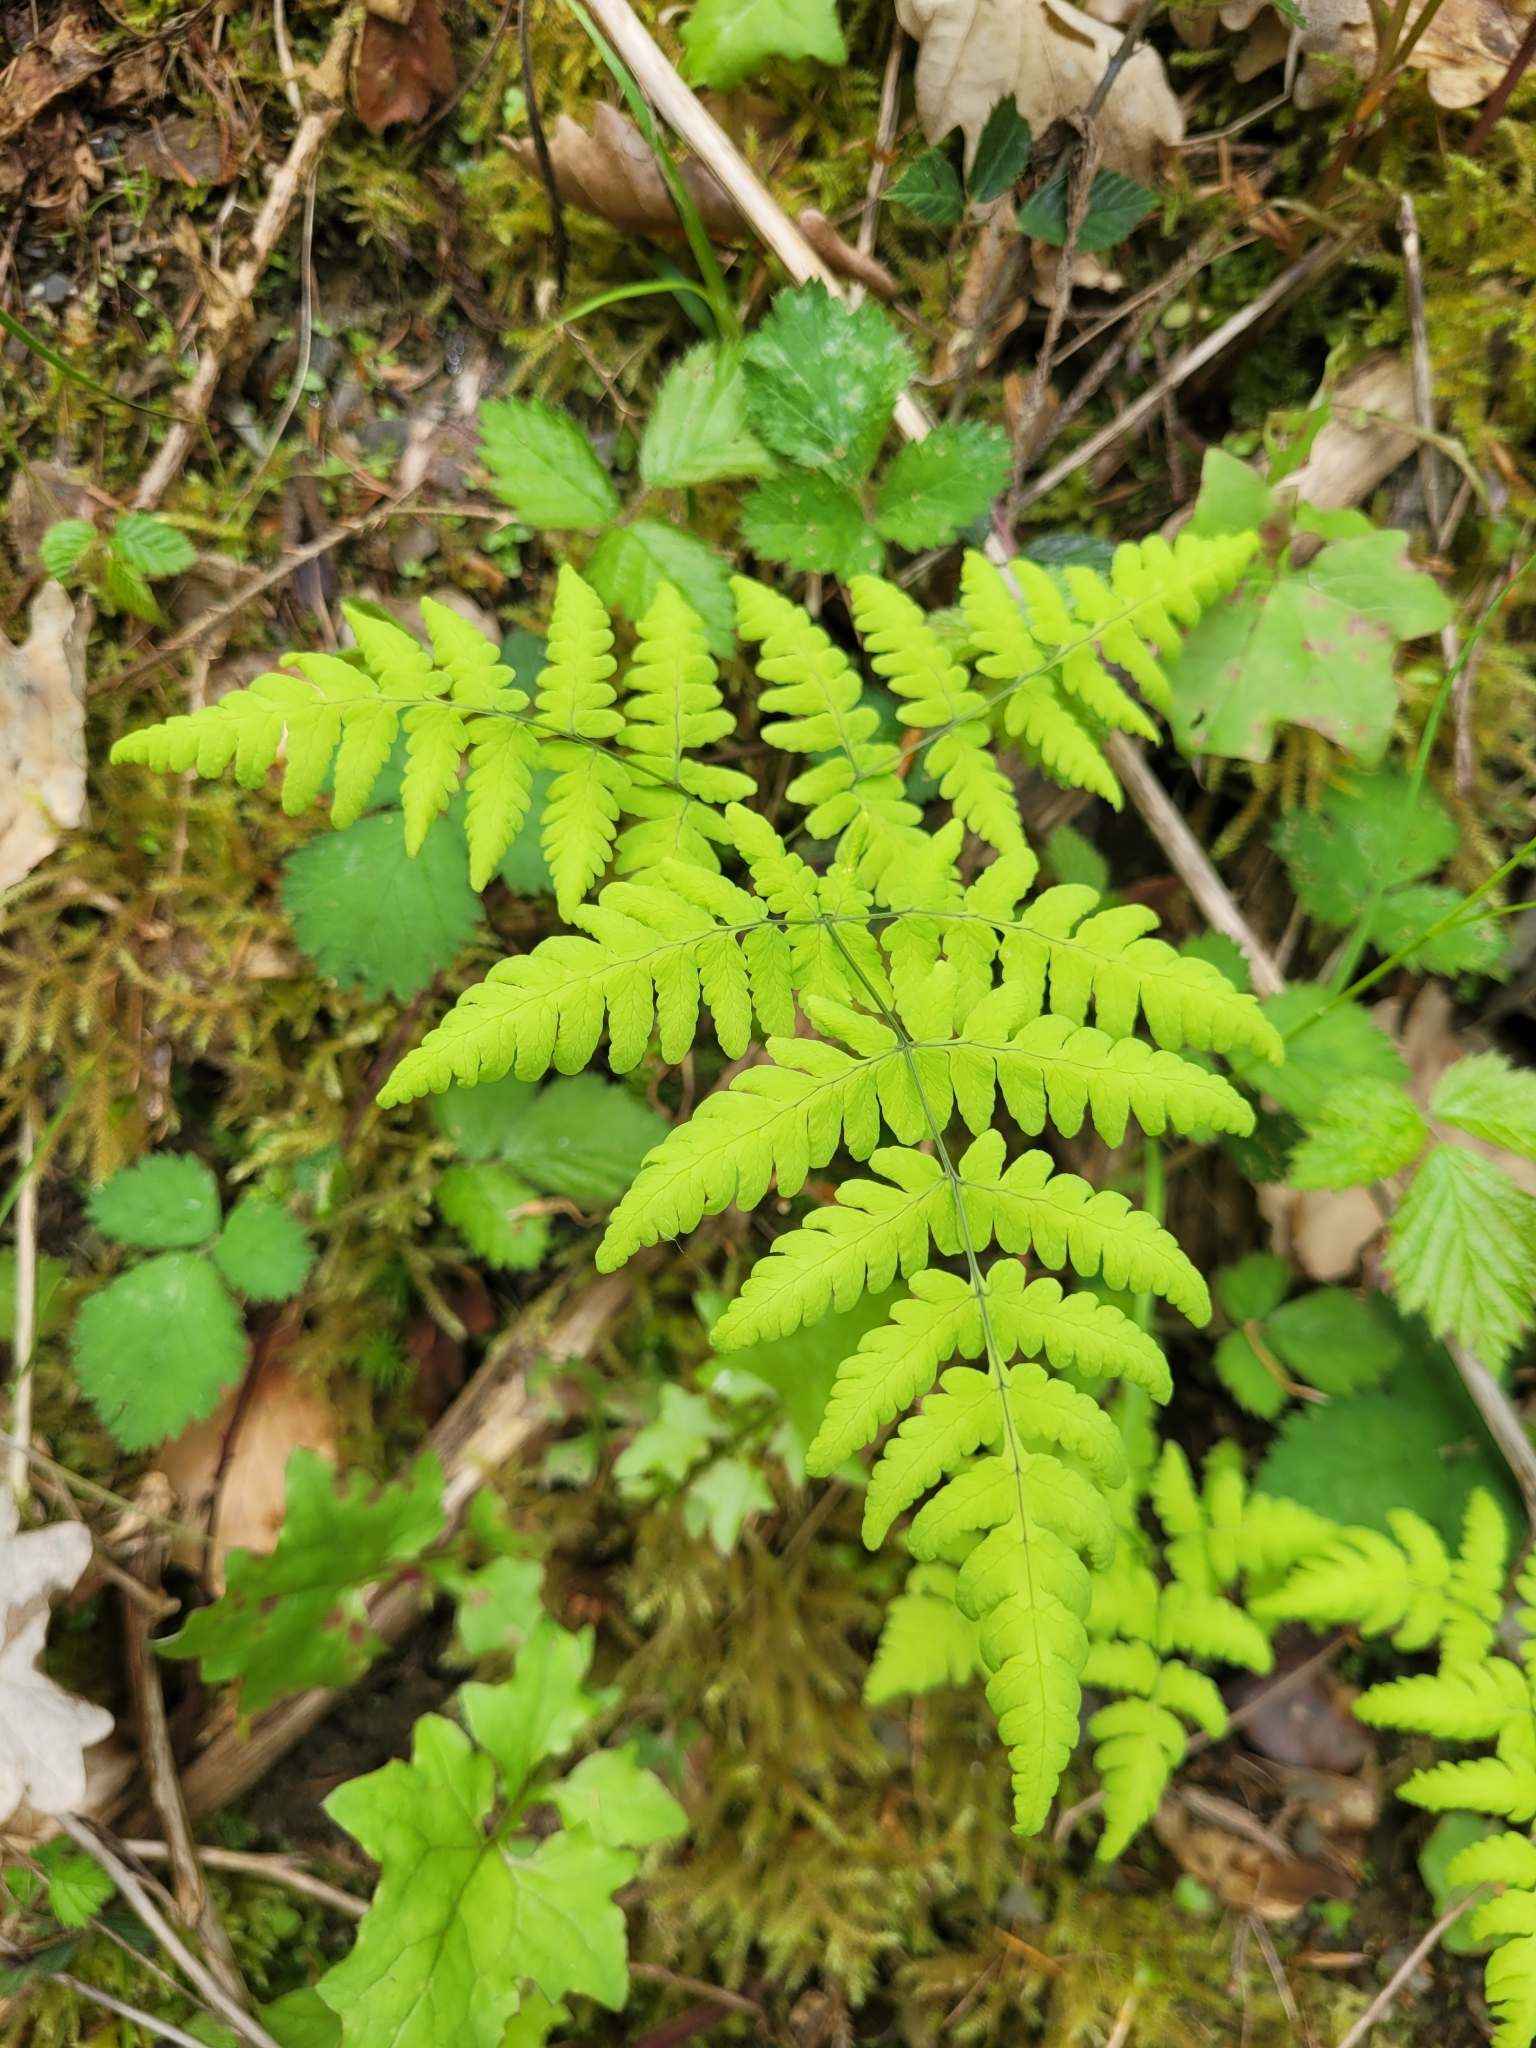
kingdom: Plantae
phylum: Tracheophyta
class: Polypodiopsida
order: Polypodiales
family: Cystopteridaceae
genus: Gymnocarpium
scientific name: Gymnocarpium dryopteris
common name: Oak fern
